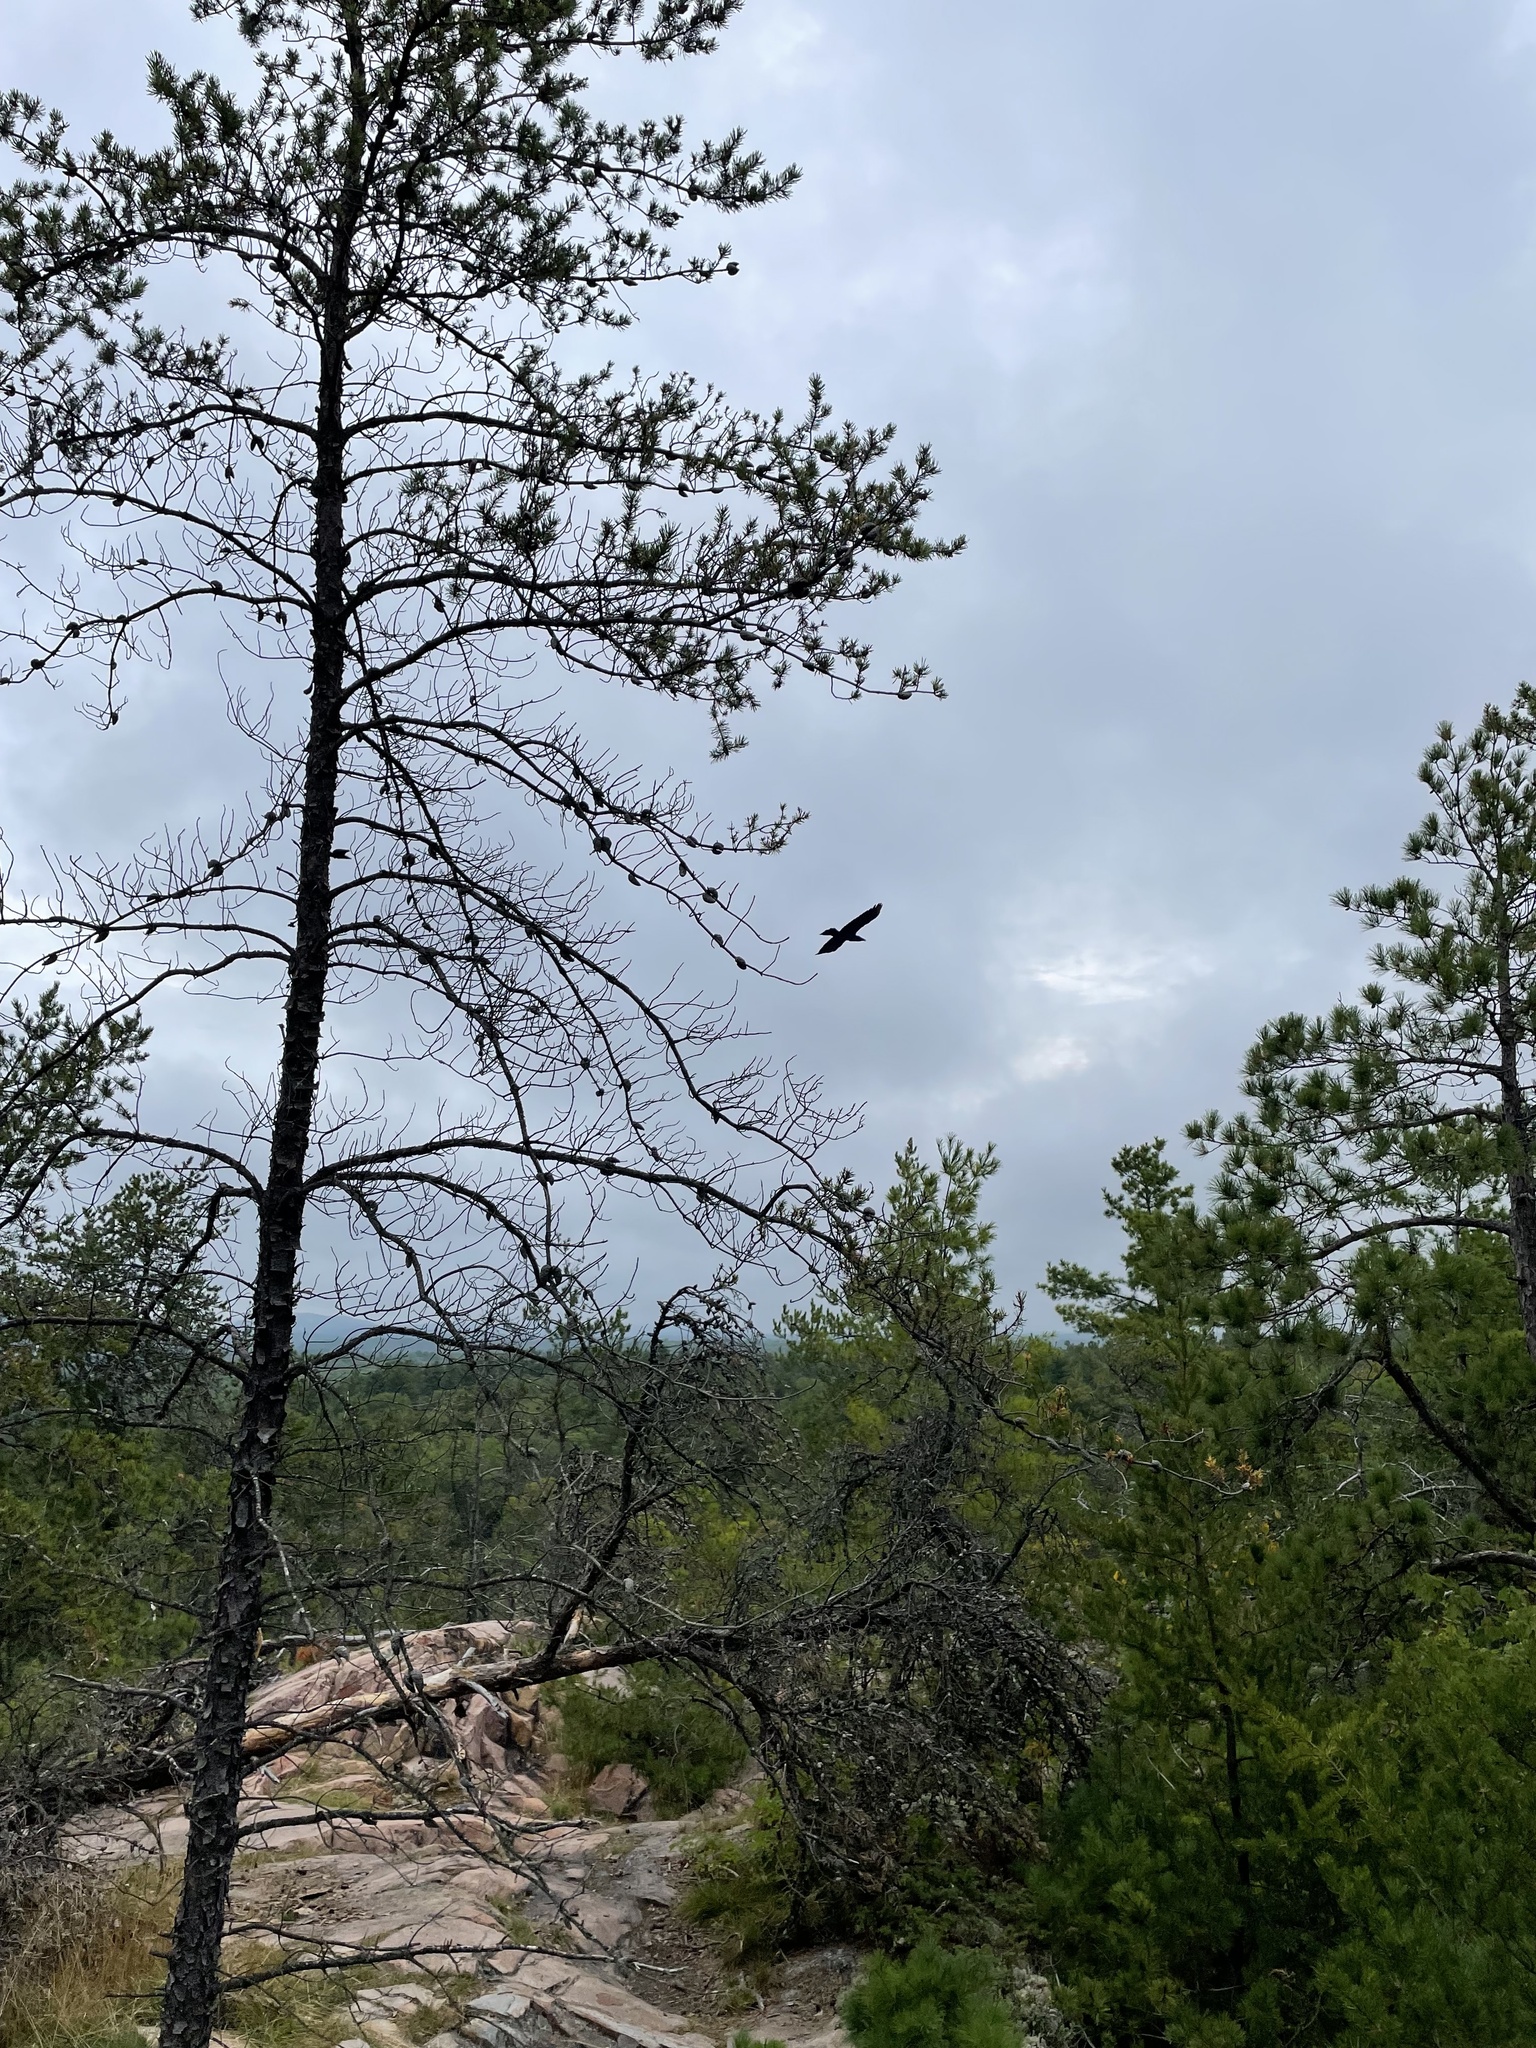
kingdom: Animalia
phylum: Chordata
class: Aves
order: Passeriformes
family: Corvidae
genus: Corvus
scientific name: Corvus corax
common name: Common raven
